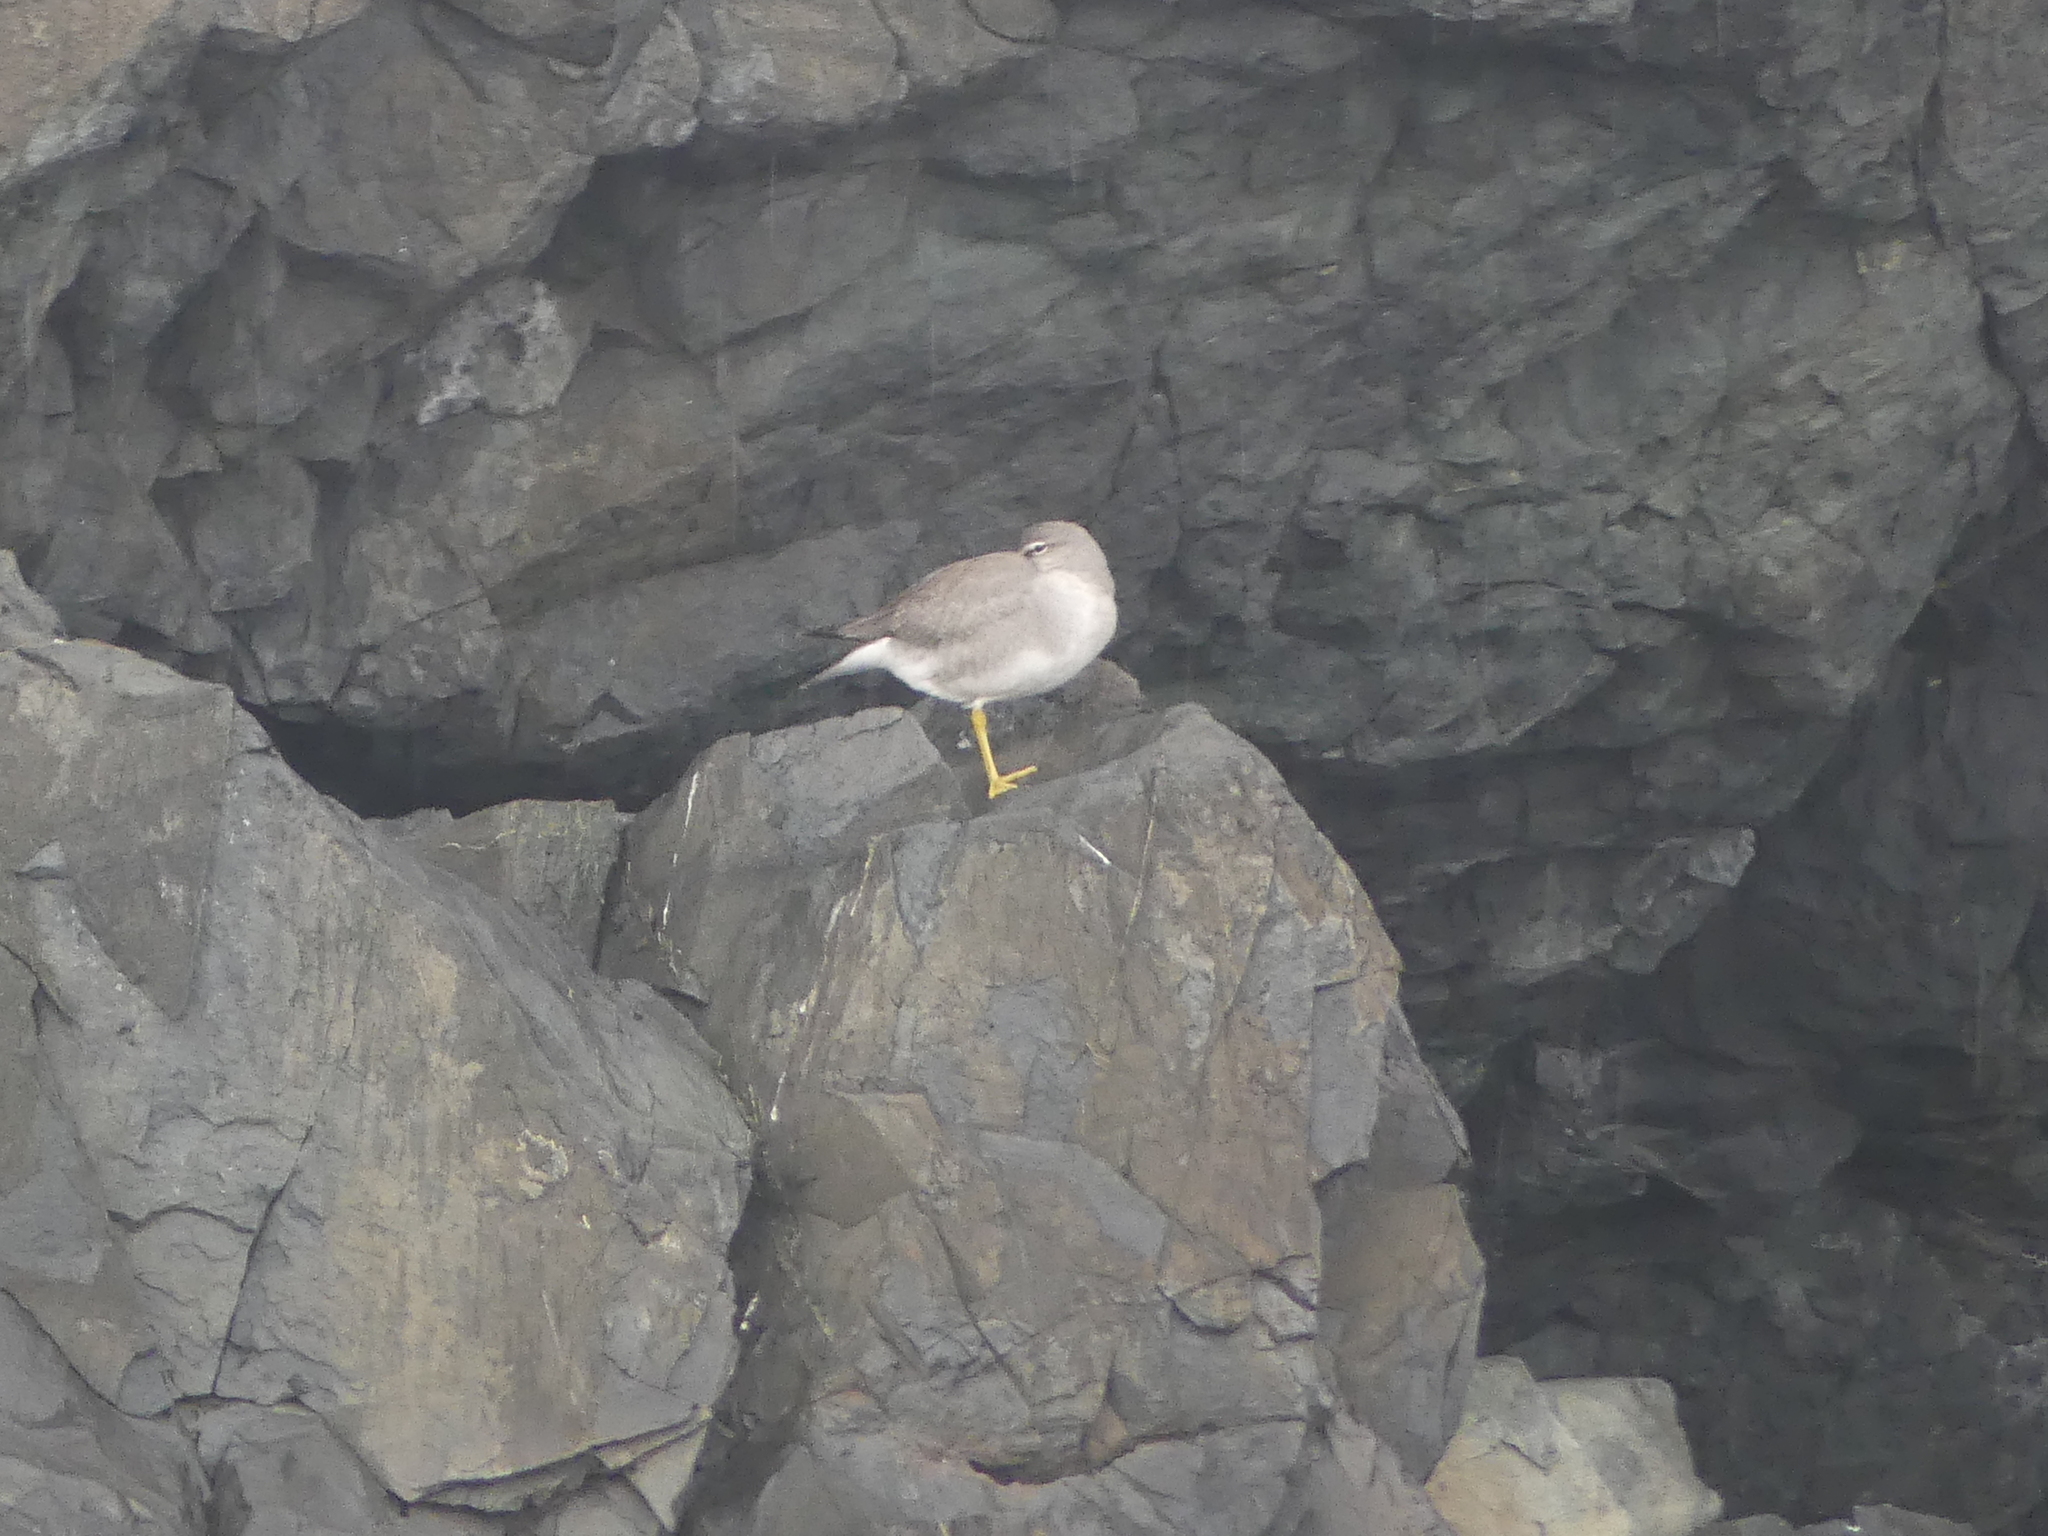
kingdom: Animalia
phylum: Chordata
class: Aves
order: Charadriiformes
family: Scolopacidae
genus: Tringa
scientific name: Tringa incana
